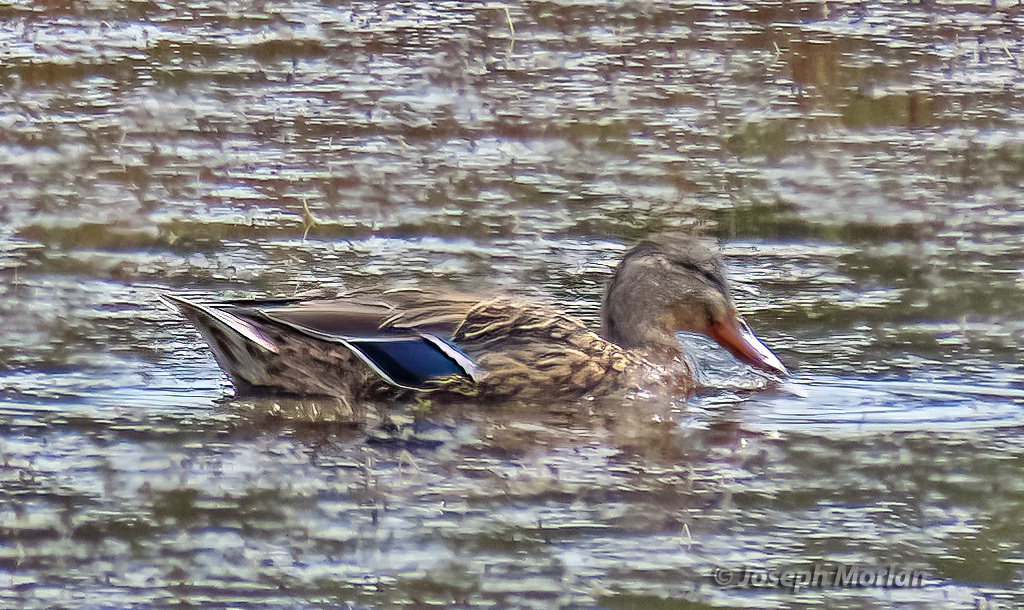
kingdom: Animalia
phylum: Chordata
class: Aves
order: Anseriformes
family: Anatidae
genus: Anas
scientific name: Anas platyrhynchos
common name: Mallard
